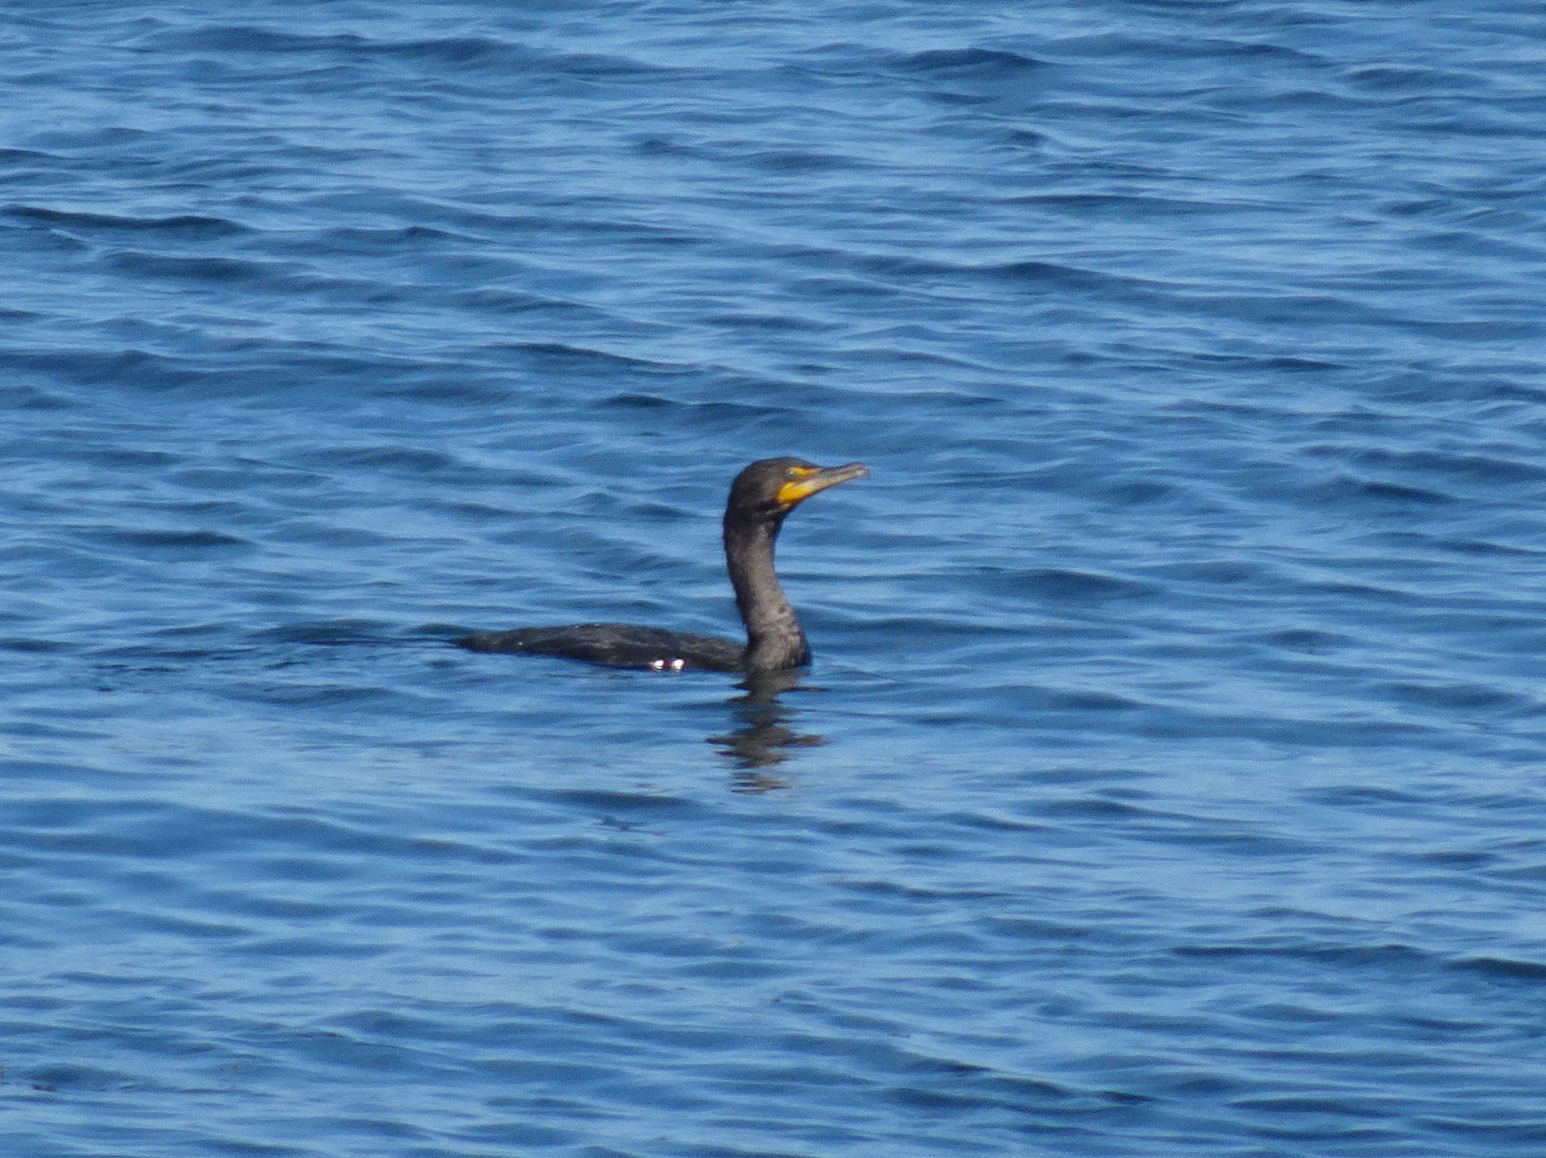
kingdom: Animalia
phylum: Chordata
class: Aves
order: Suliformes
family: Phalacrocoracidae
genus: Phalacrocorax
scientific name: Phalacrocorax auritus
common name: Double-crested cormorant
